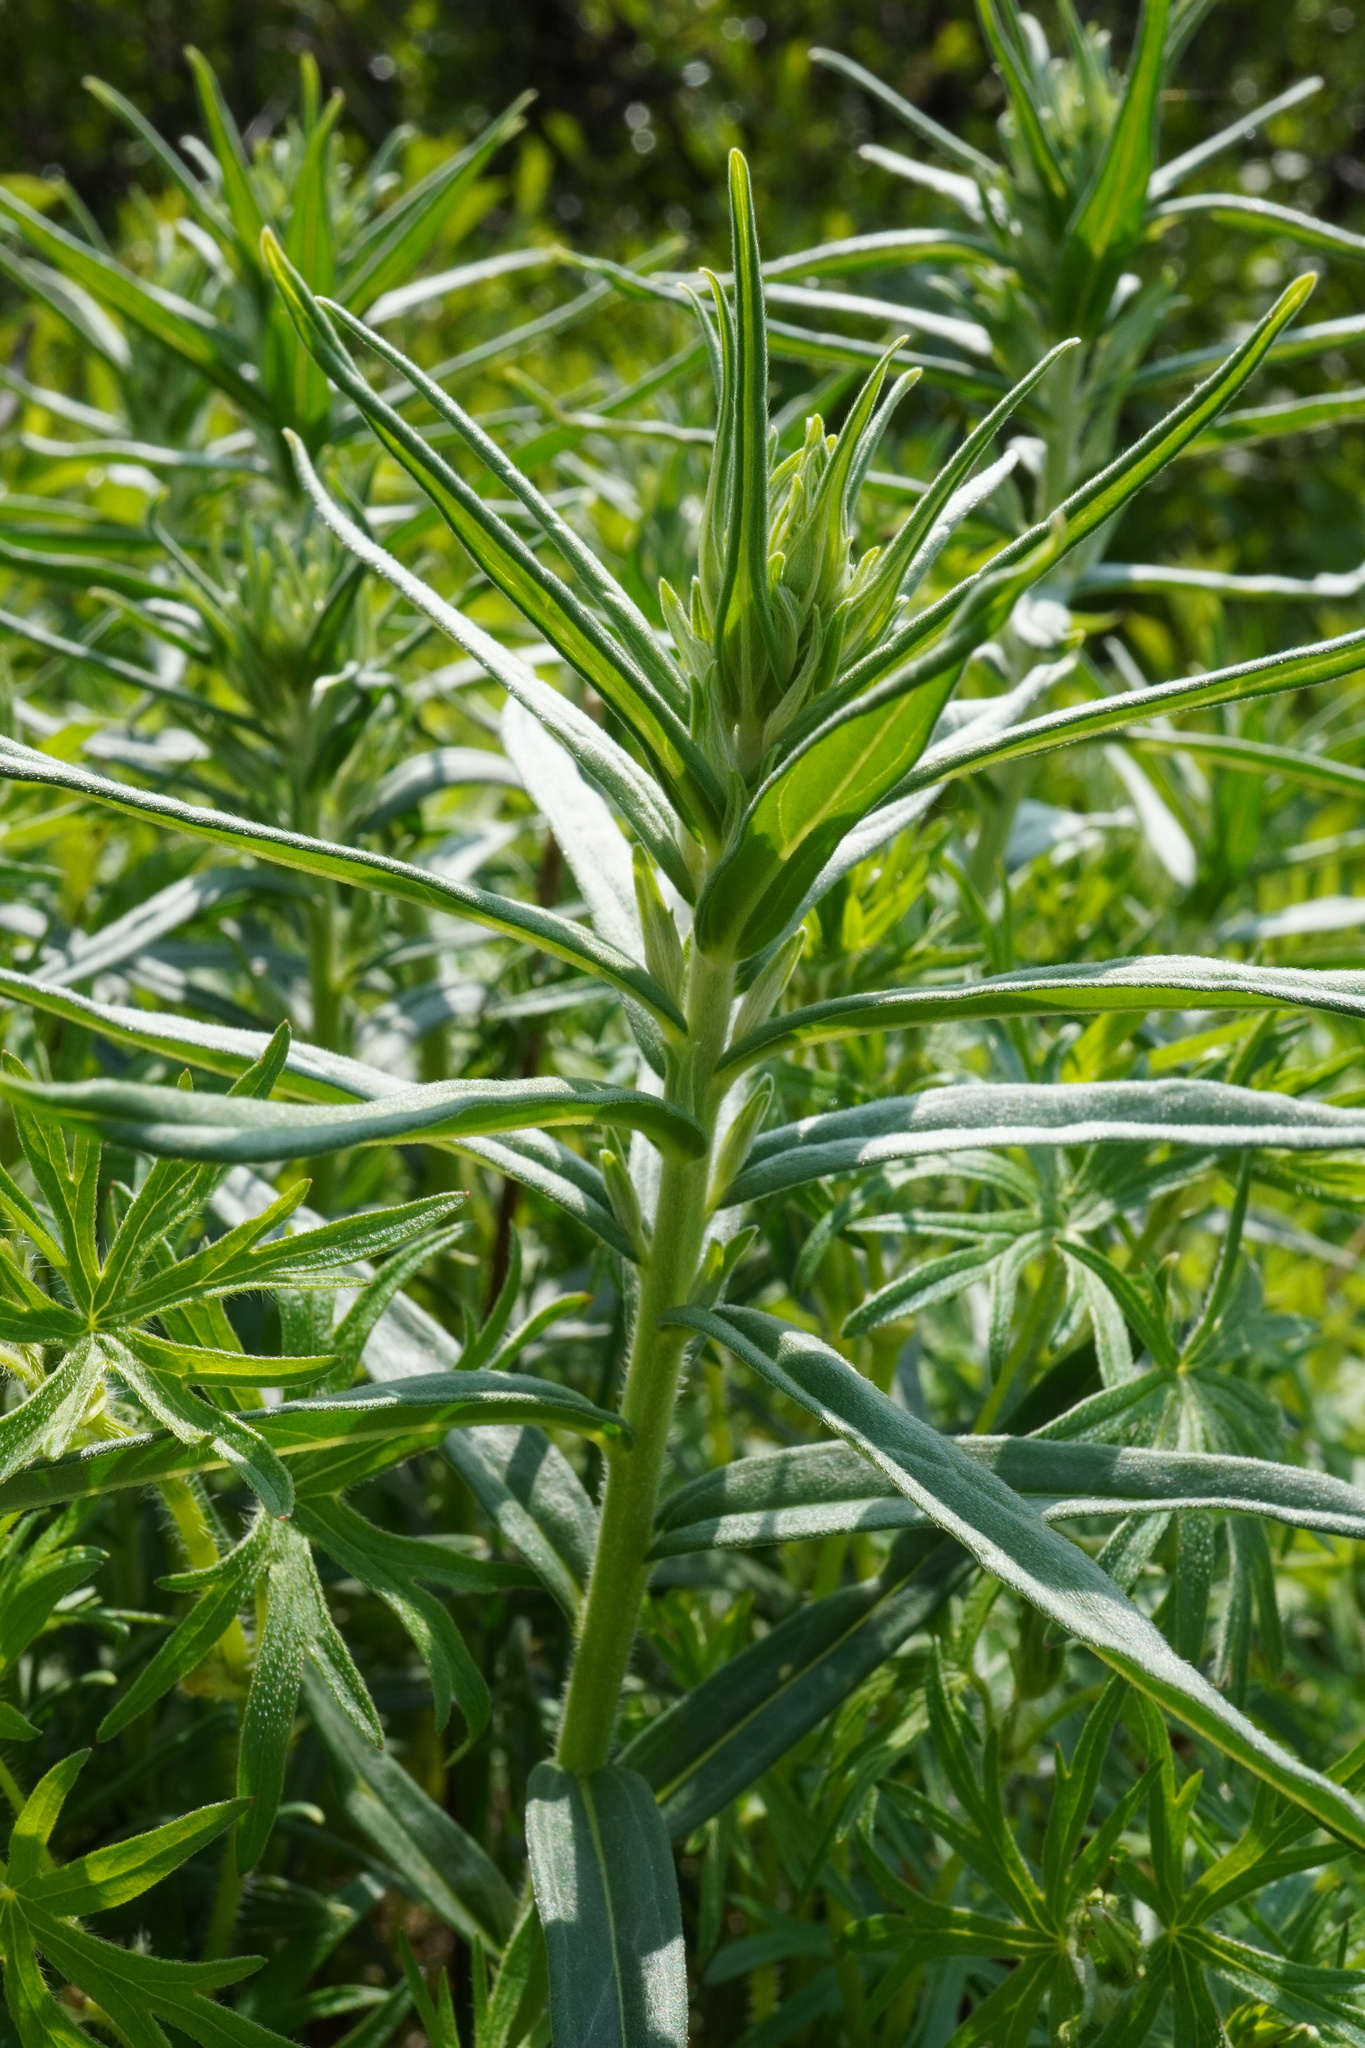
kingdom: Plantae
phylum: Tracheophyta
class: Magnoliopsida
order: Boraginales
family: Boraginaceae
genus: Lithospermum
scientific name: Lithospermum officinale
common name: Common gromwell
